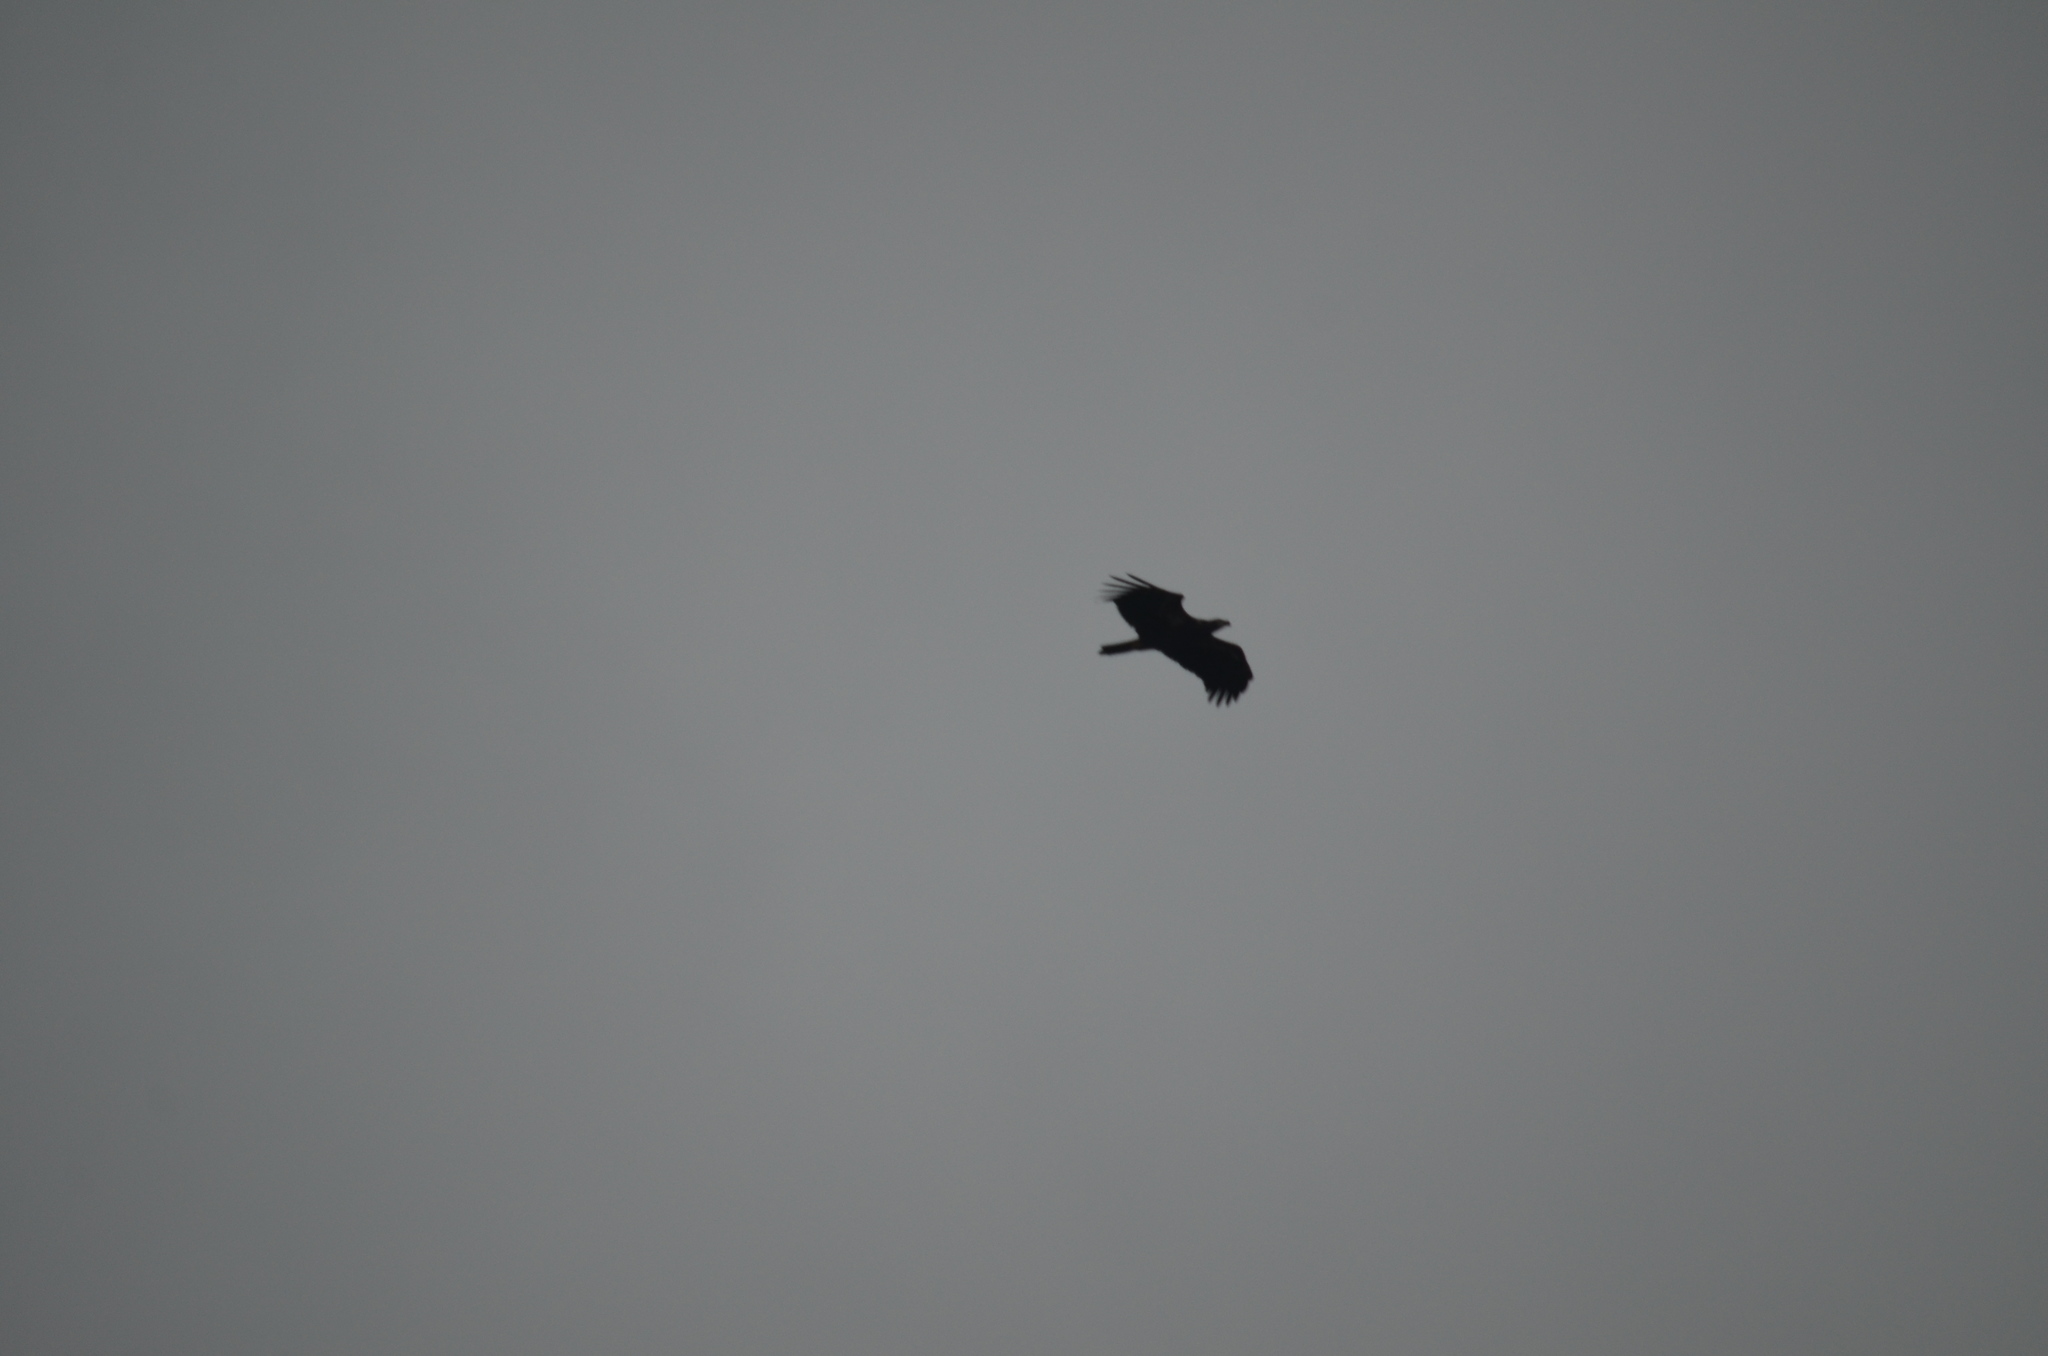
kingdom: Animalia
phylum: Chordata
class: Aves
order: Accipitriformes
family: Accipitridae
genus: Haliaeetus
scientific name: Haliaeetus leucocephalus
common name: Bald eagle
